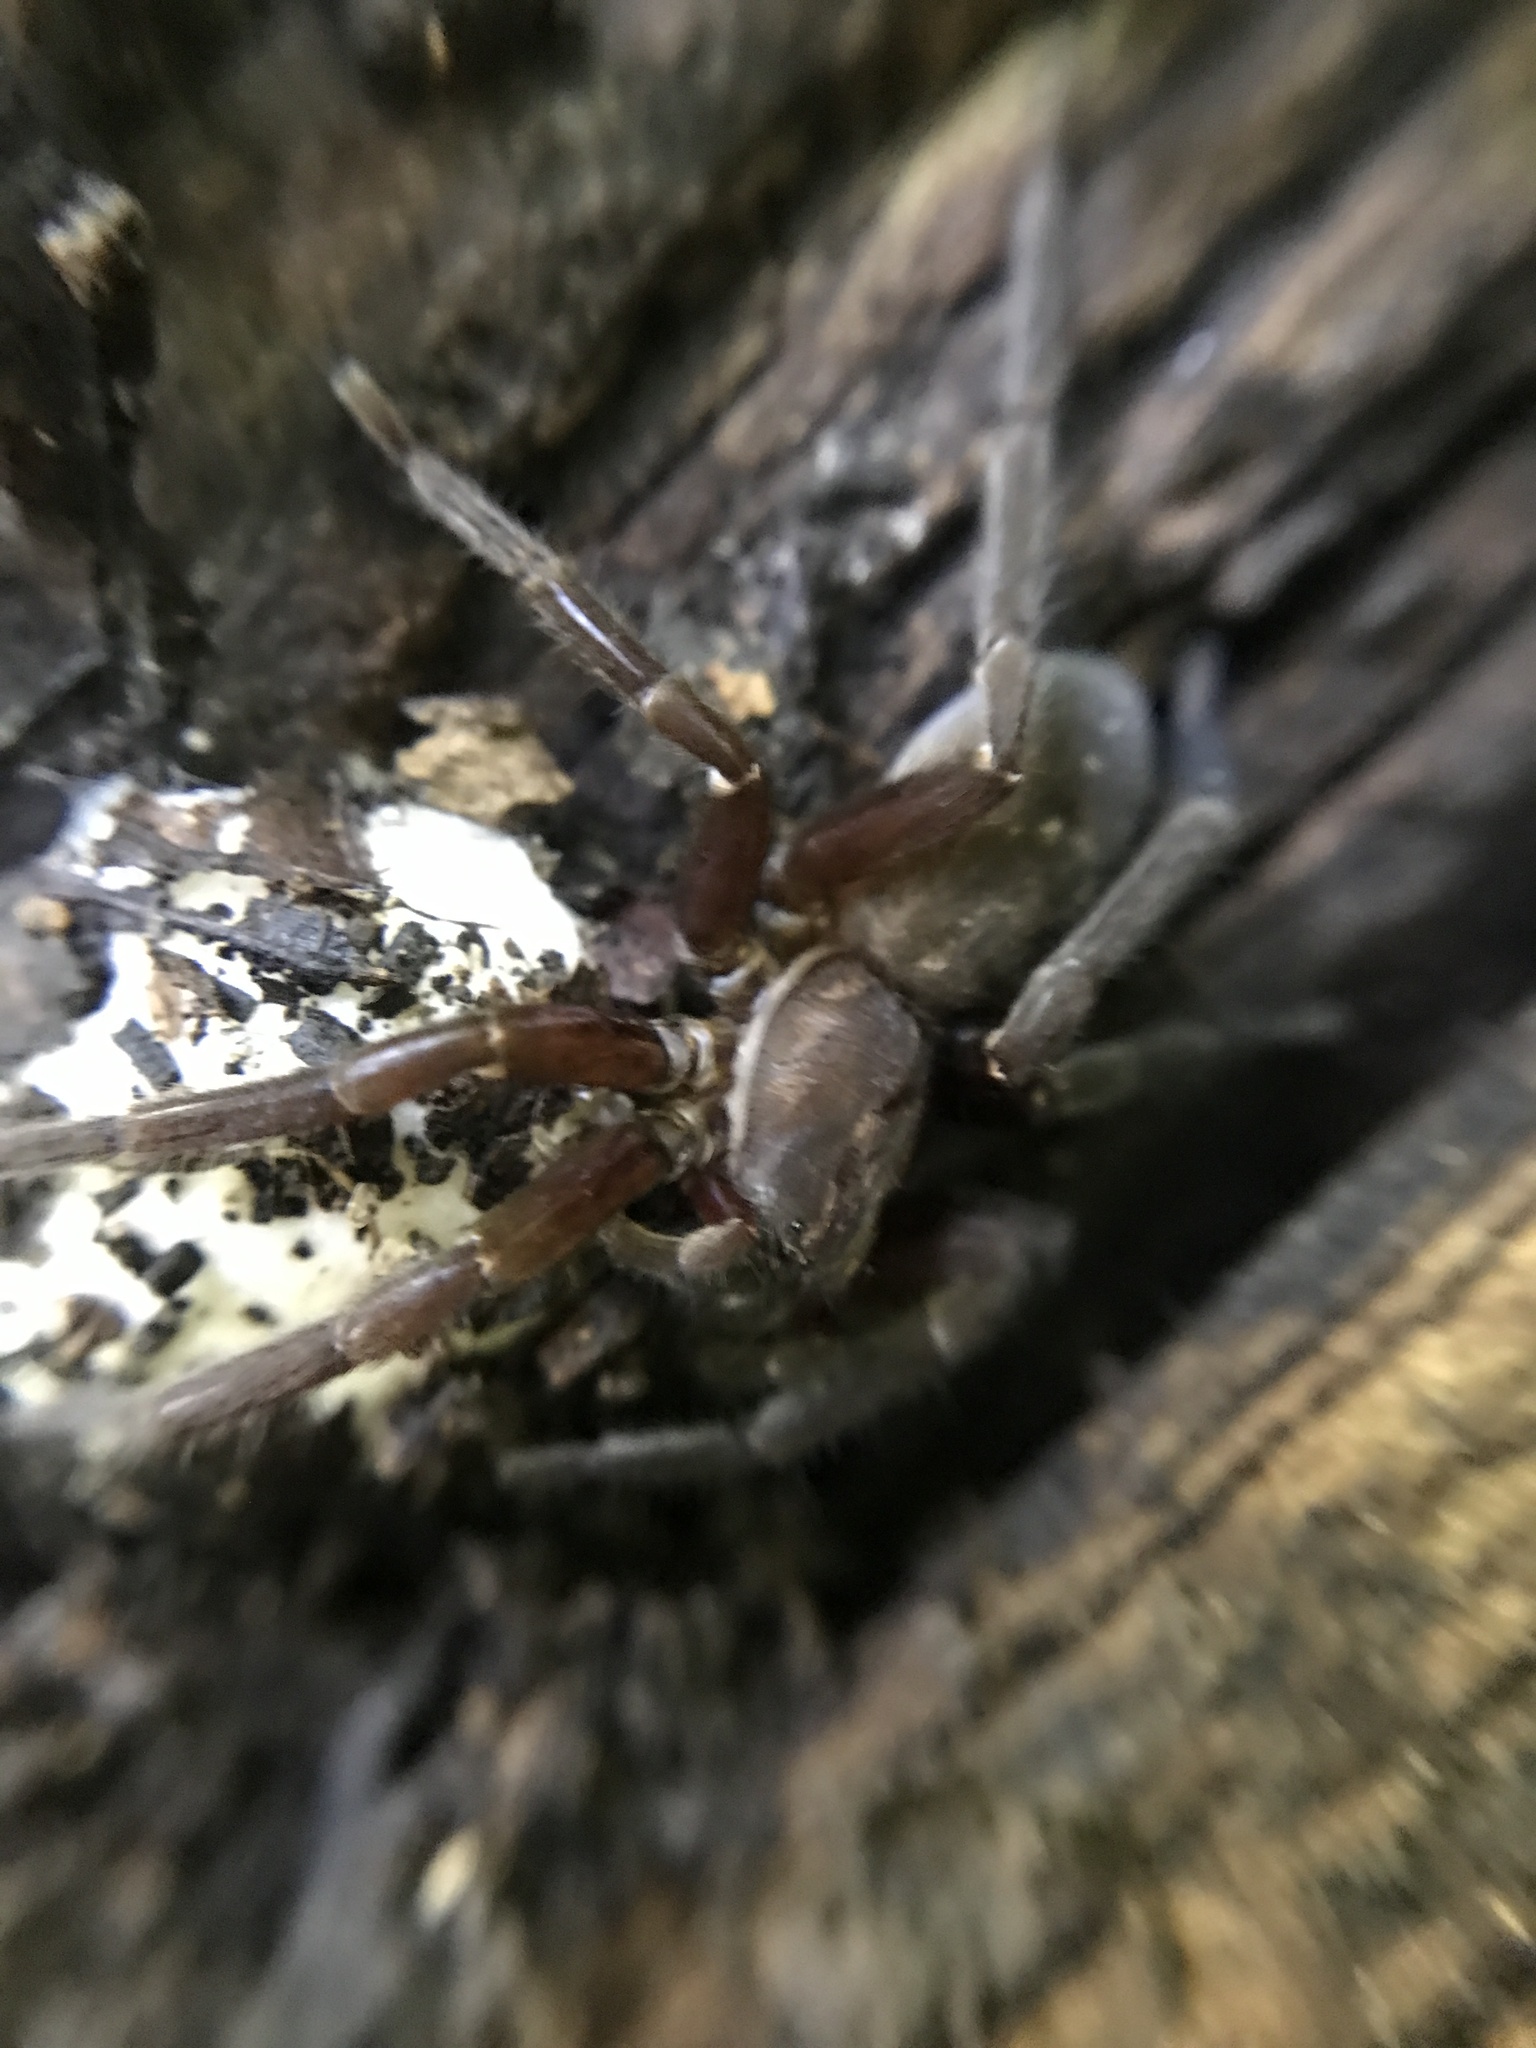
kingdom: Animalia
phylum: Arthropoda
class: Arachnida
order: Araneae
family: Ctenidae
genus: Asthenoctenus
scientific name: Asthenoctenus borellii
